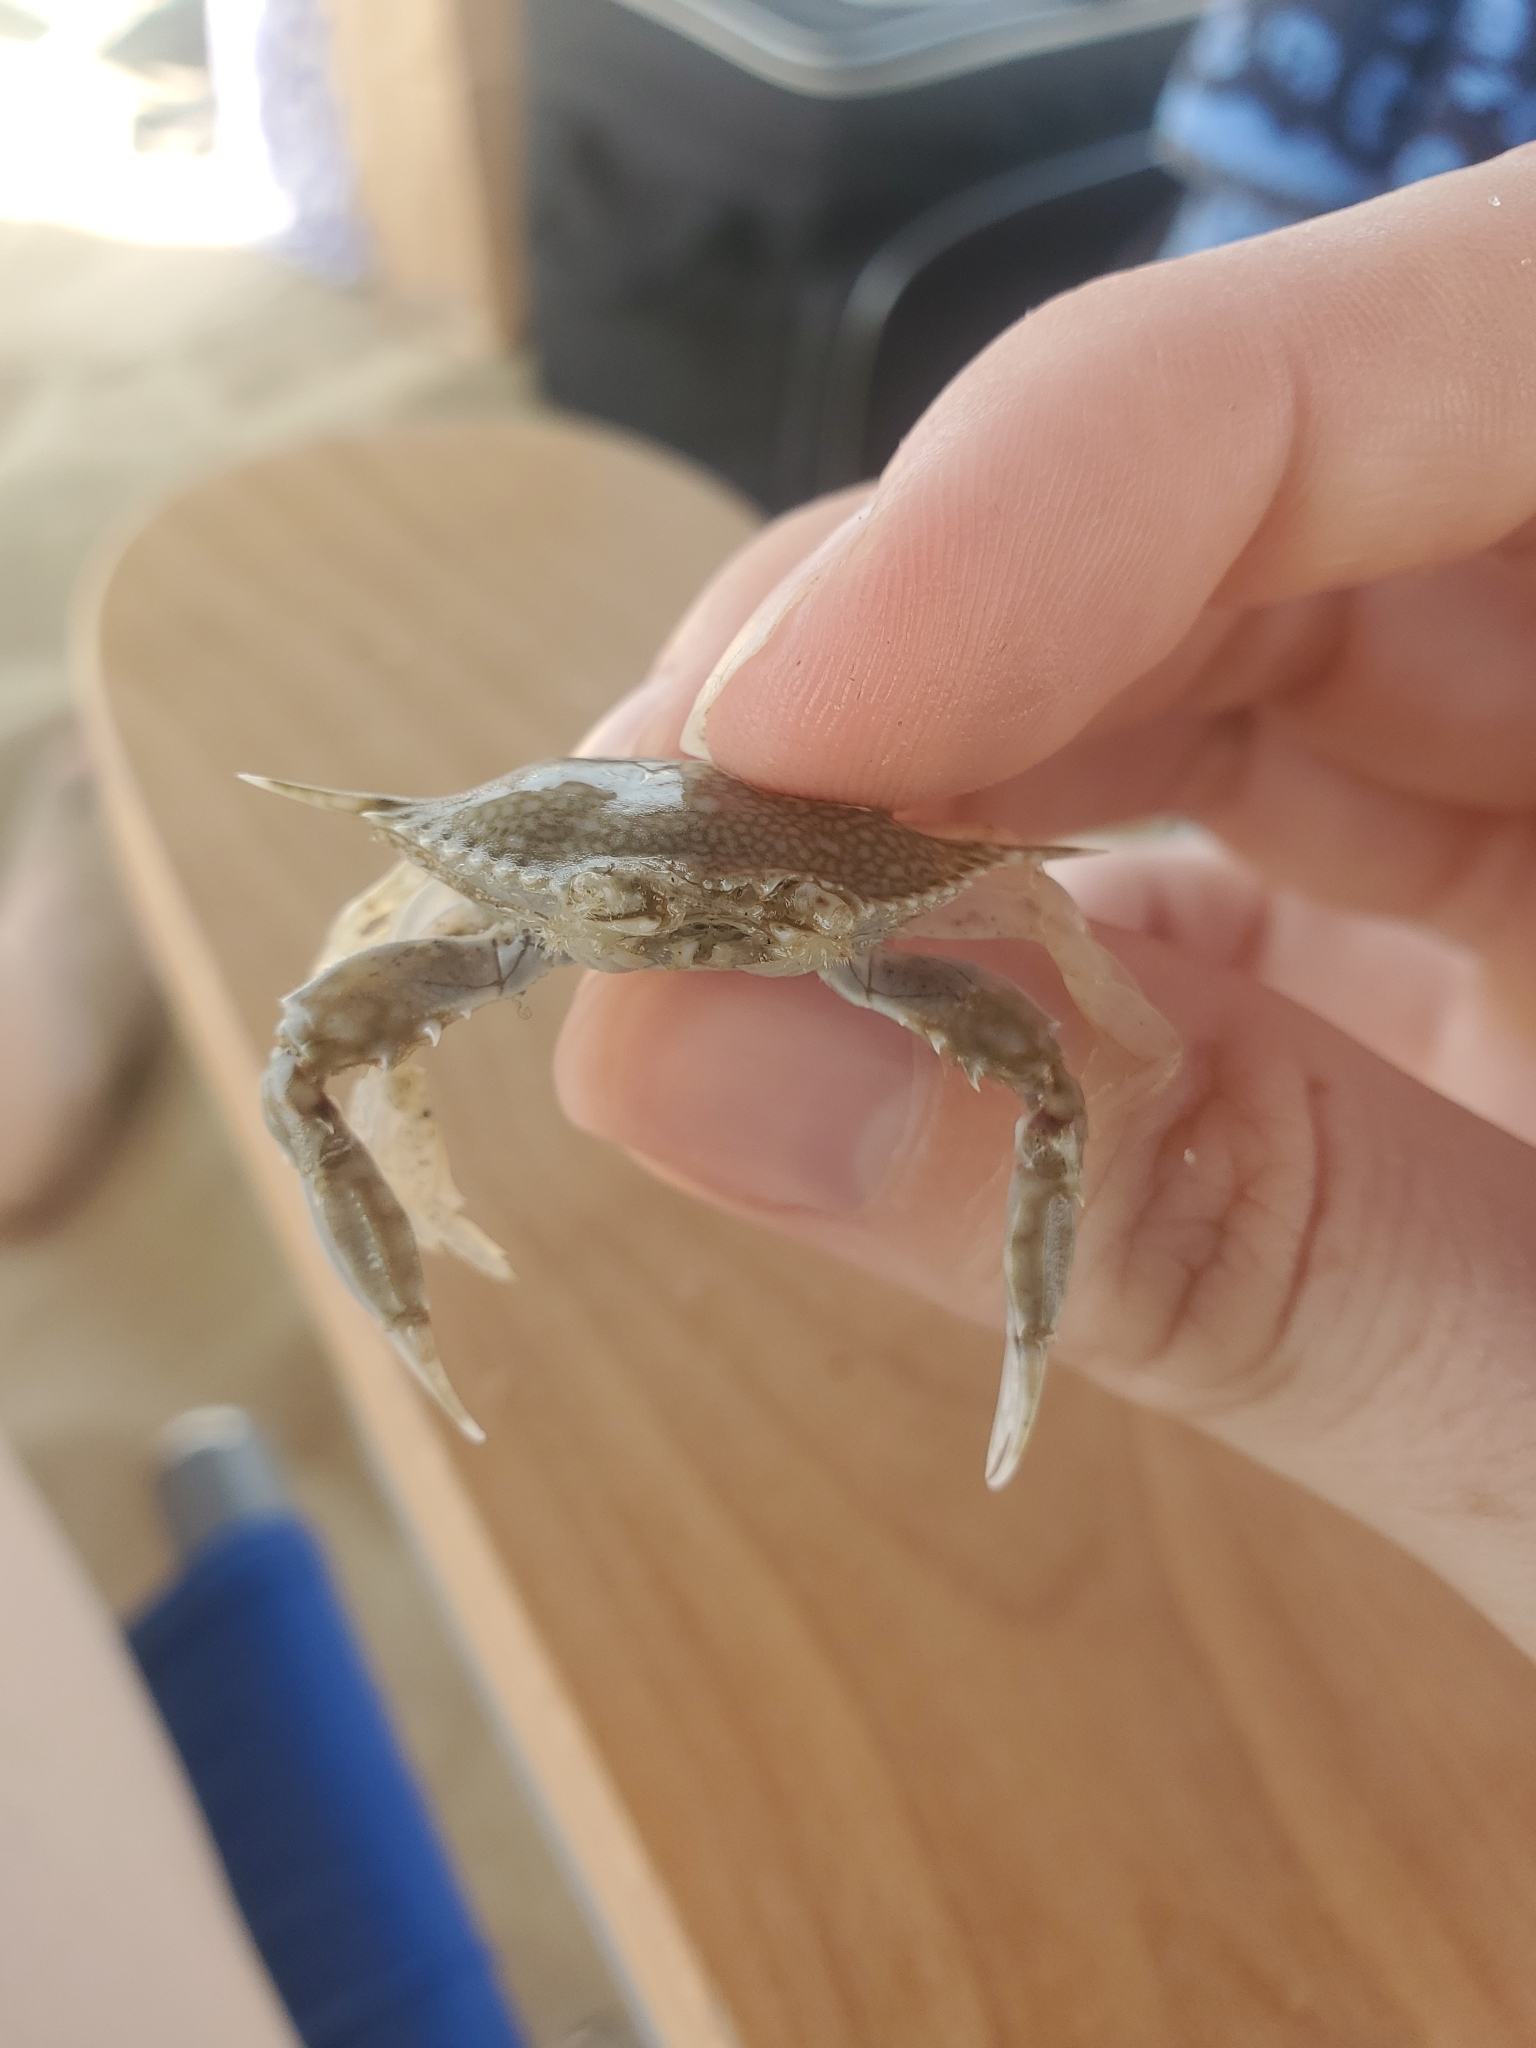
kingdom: Animalia
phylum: Arthropoda
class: Malacostraca
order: Decapoda
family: Portunidae
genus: Arenaeus
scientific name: Arenaeus cribrarius
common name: Speckled crab
